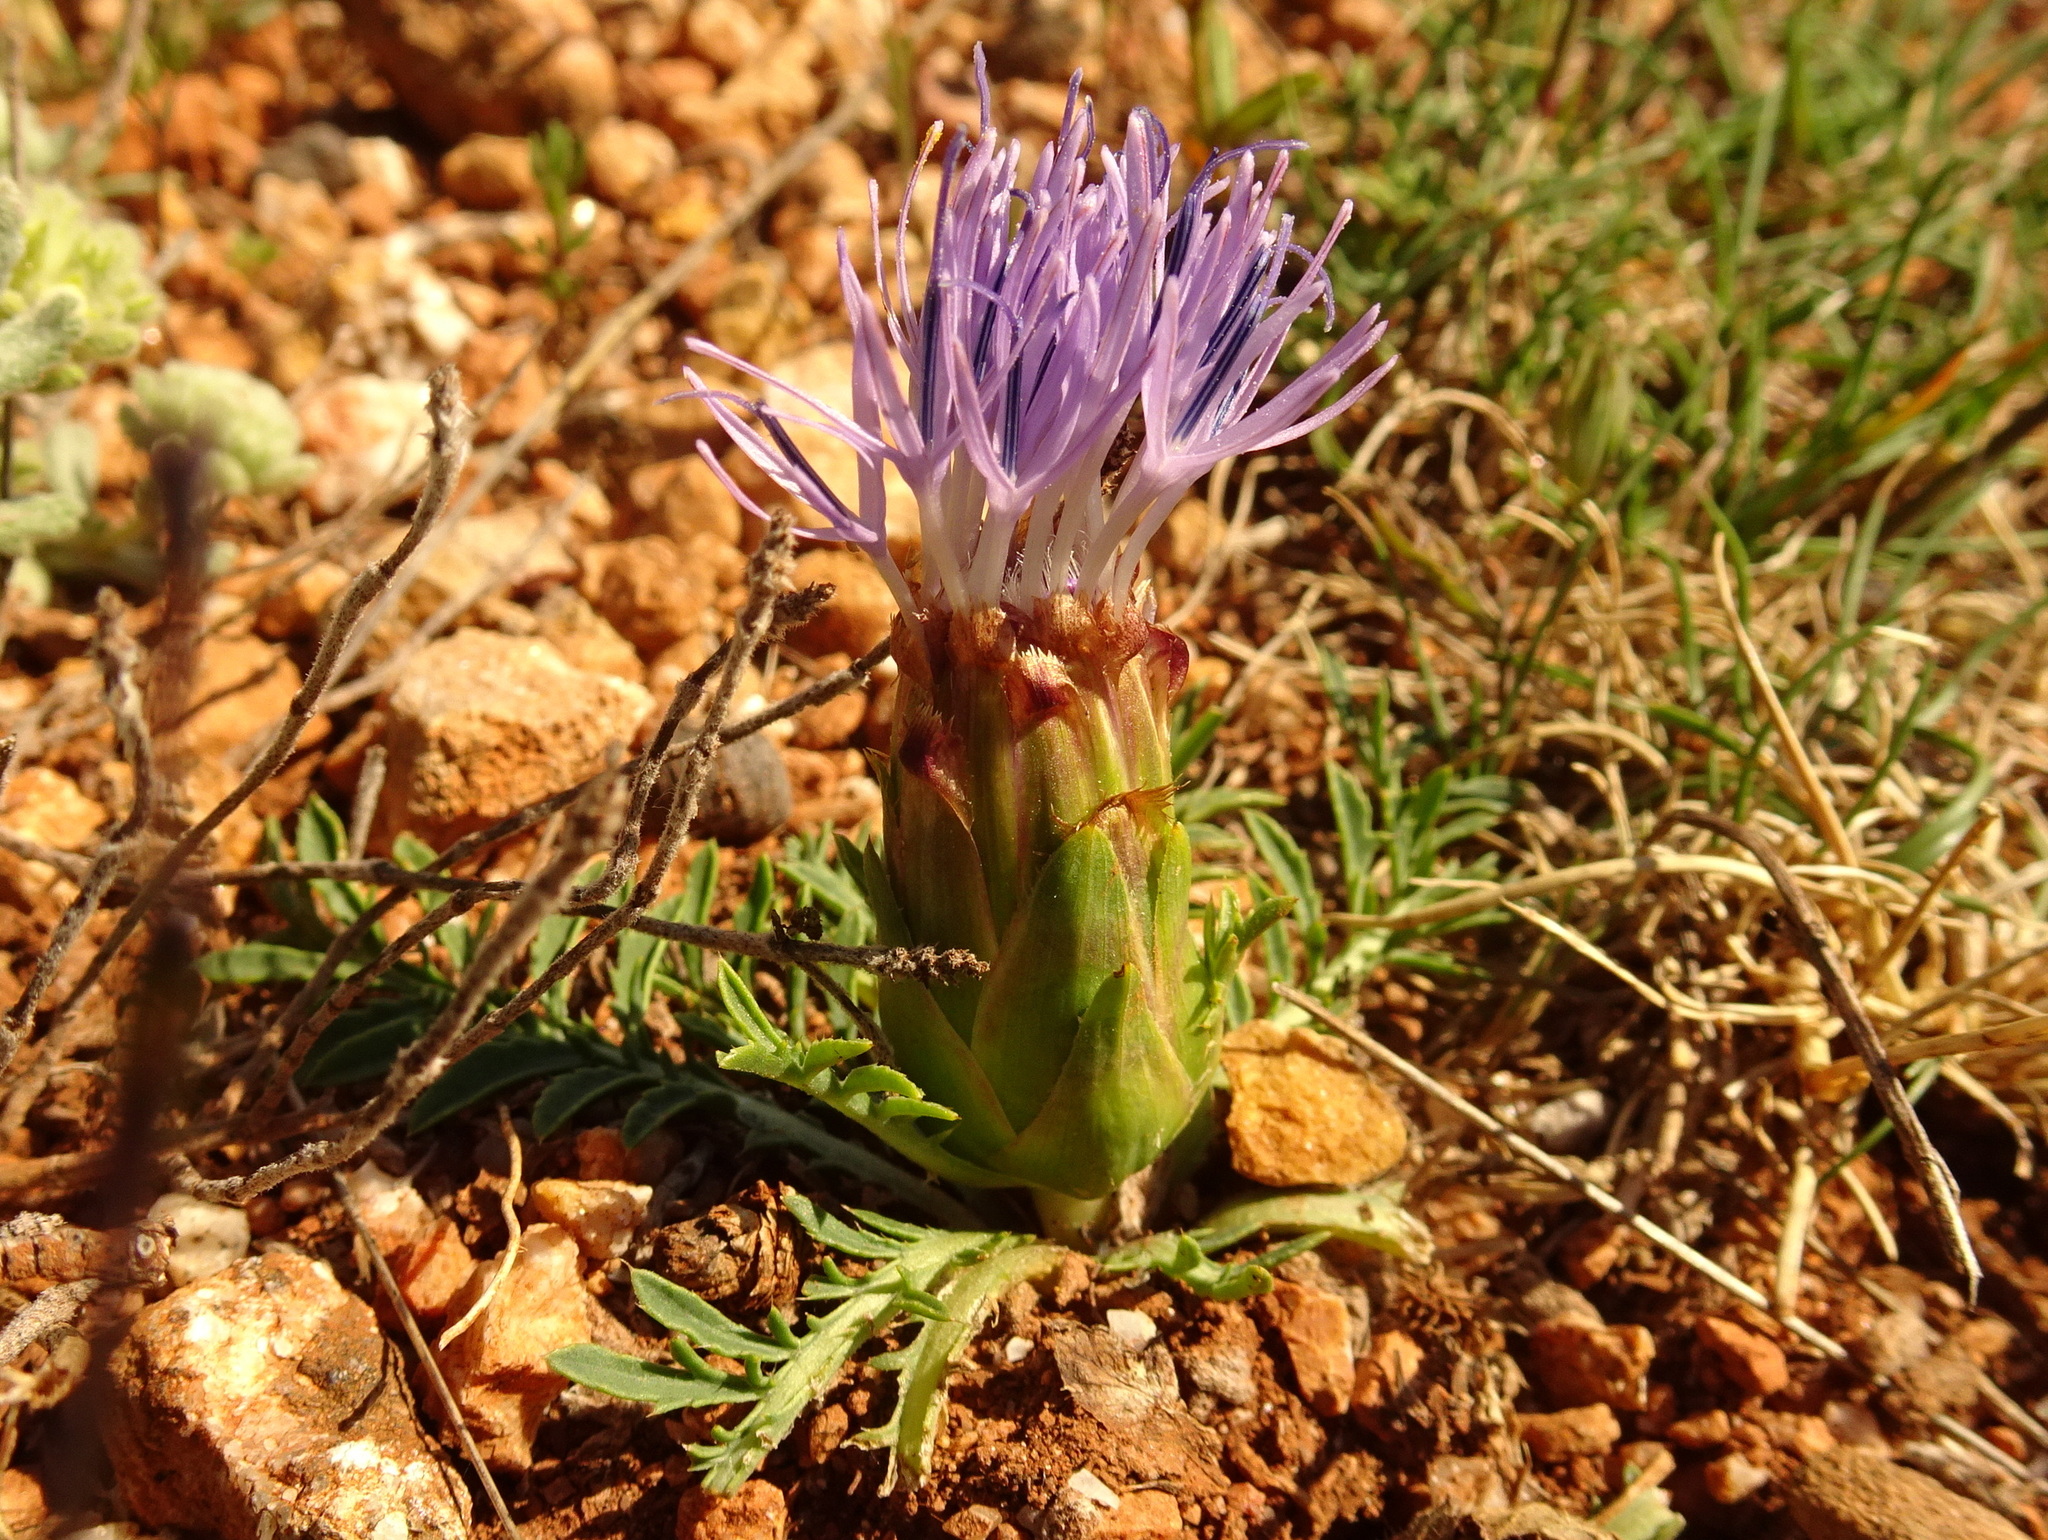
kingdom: Plantae
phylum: Tracheophyta
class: Magnoliopsida
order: Asterales
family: Asteraceae
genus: Carduncellus
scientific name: Carduncellus mitissimus
